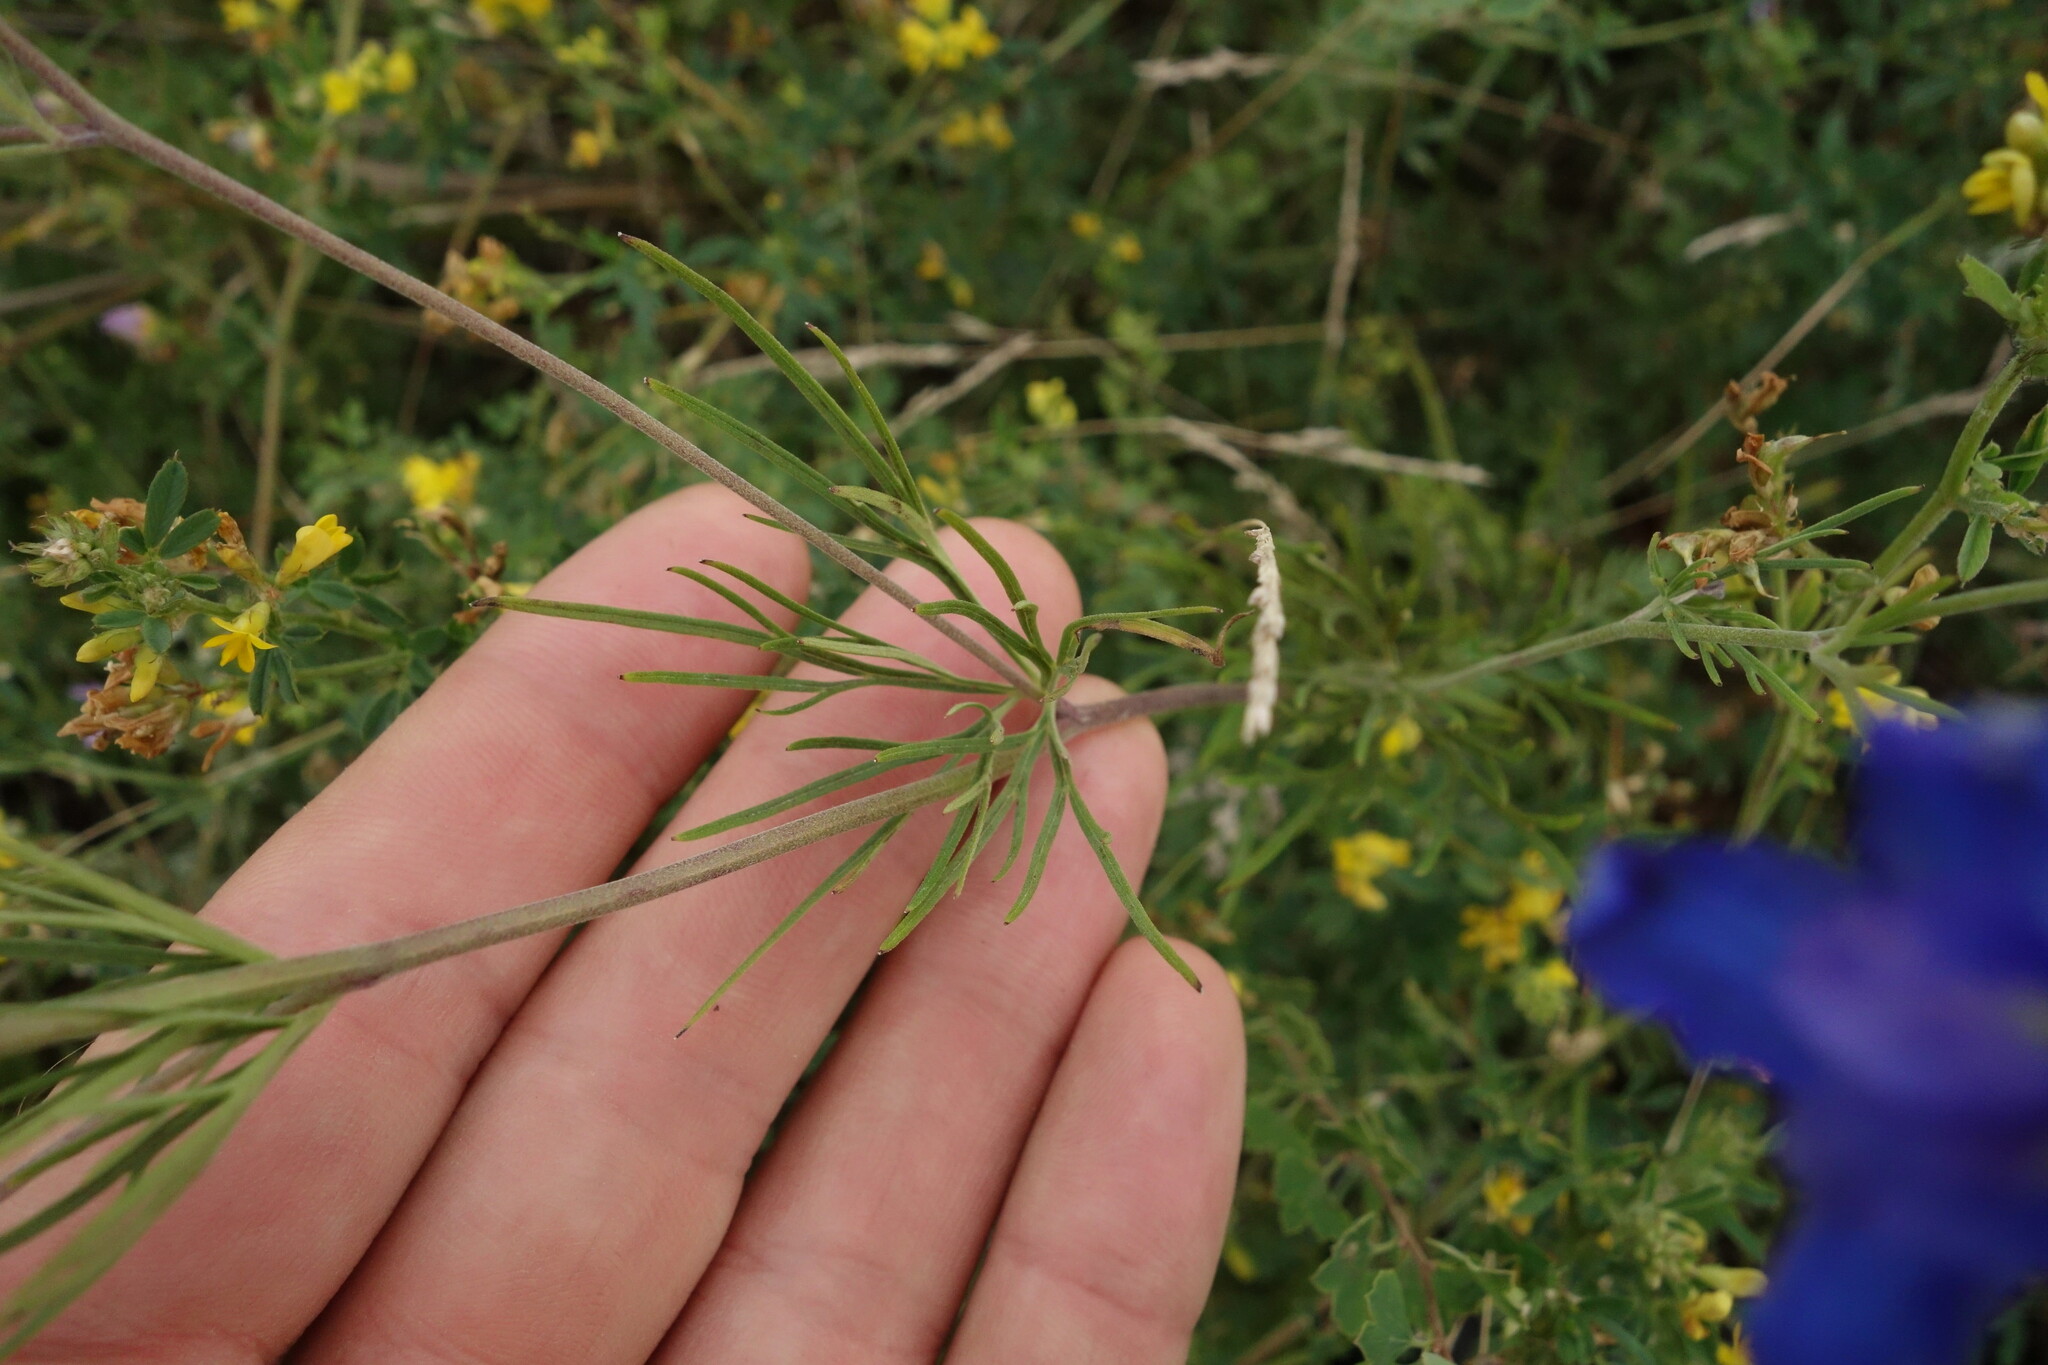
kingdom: Plantae
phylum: Tracheophyta
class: Magnoliopsida
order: Ranunculales
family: Ranunculaceae
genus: Delphinium
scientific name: Delphinium grandiflorum
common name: Siberian larkspur
